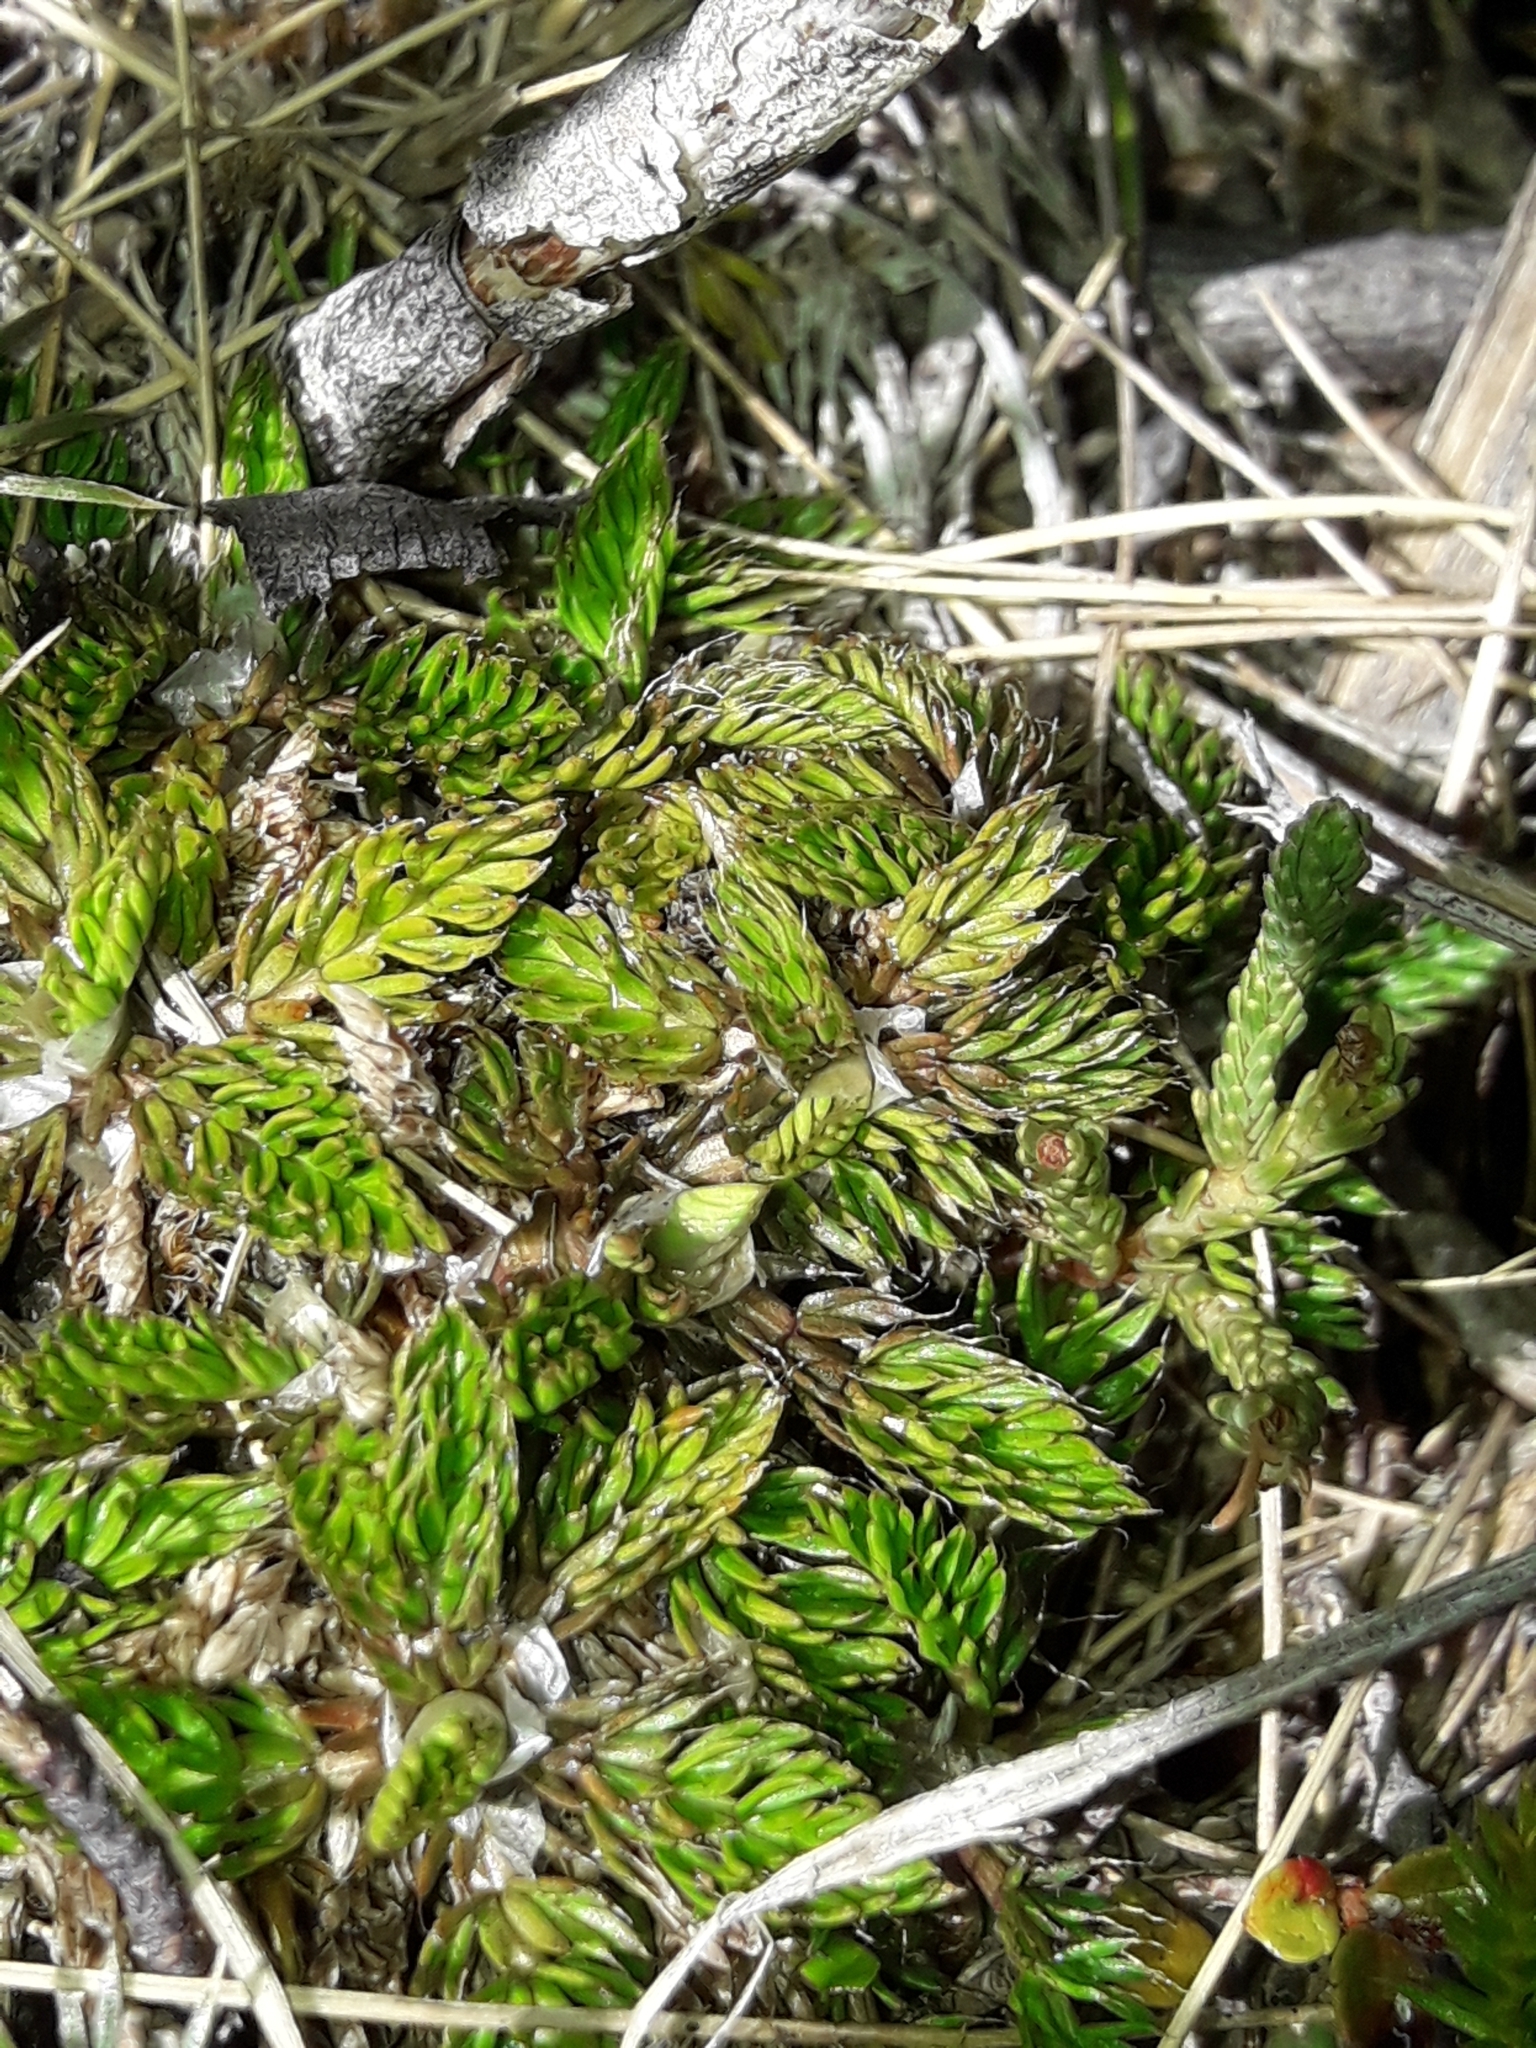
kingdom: Plantae
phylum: Tracheophyta
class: Magnoliopsida
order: Apiales
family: Apiaceae
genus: Anisotome
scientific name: Anisotome imbricata
